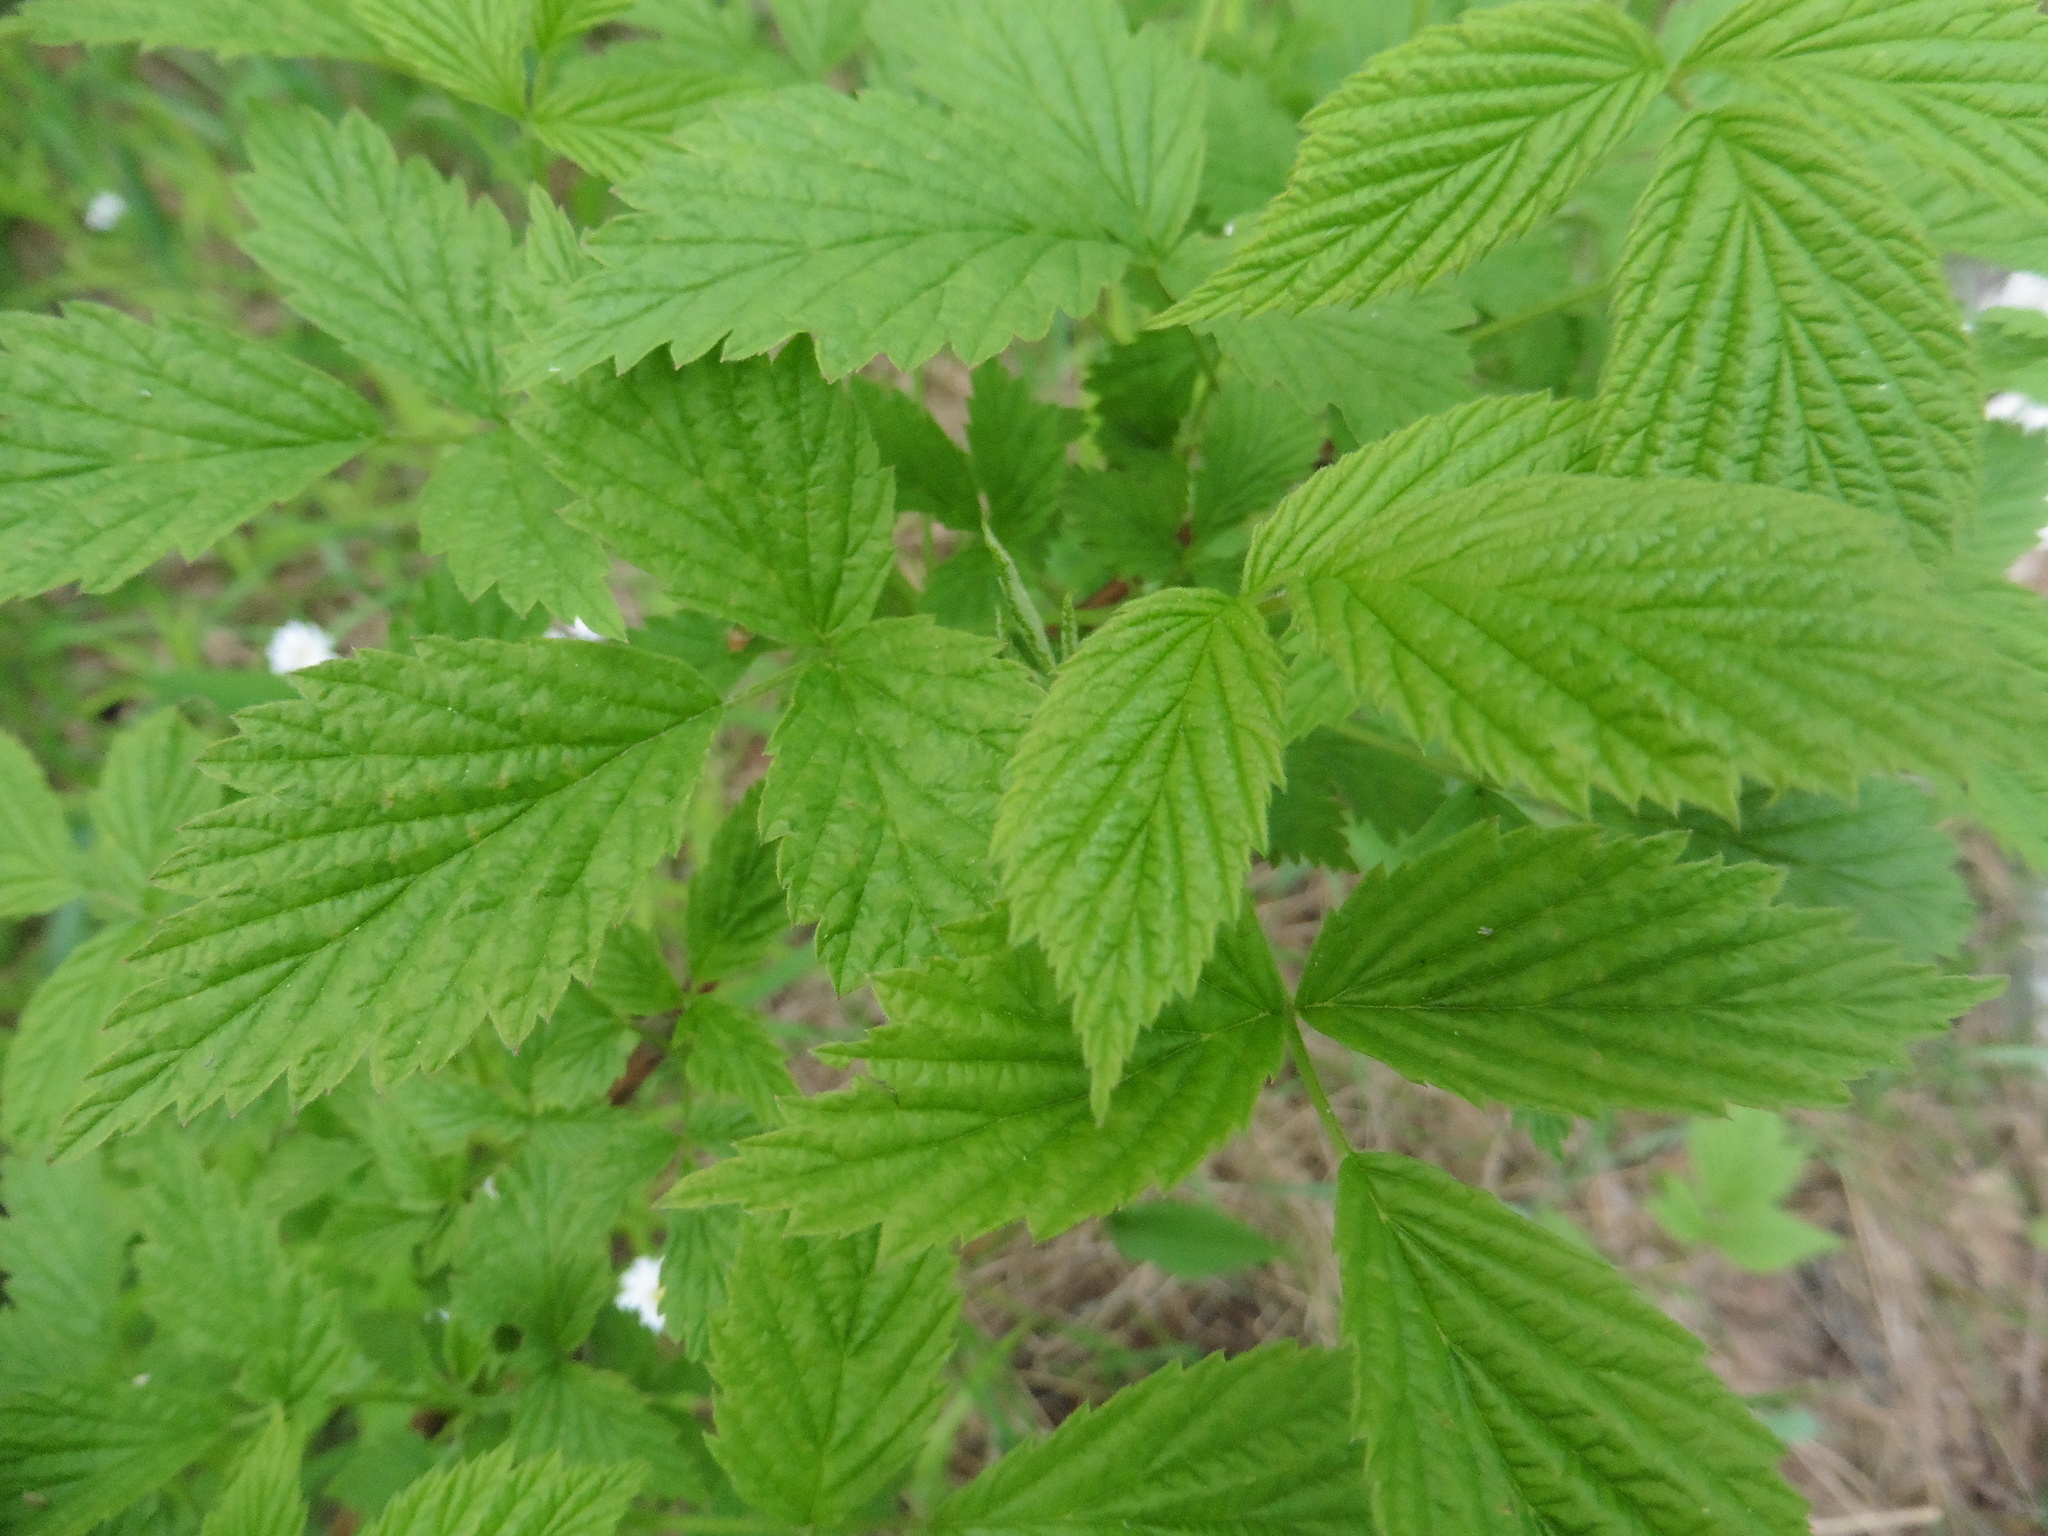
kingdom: Plantae
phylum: Tracheophyta
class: Magnoliopsida
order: Rosales
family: Rosaceae
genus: Rubus
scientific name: Rubus idaeus
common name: Raspberry
